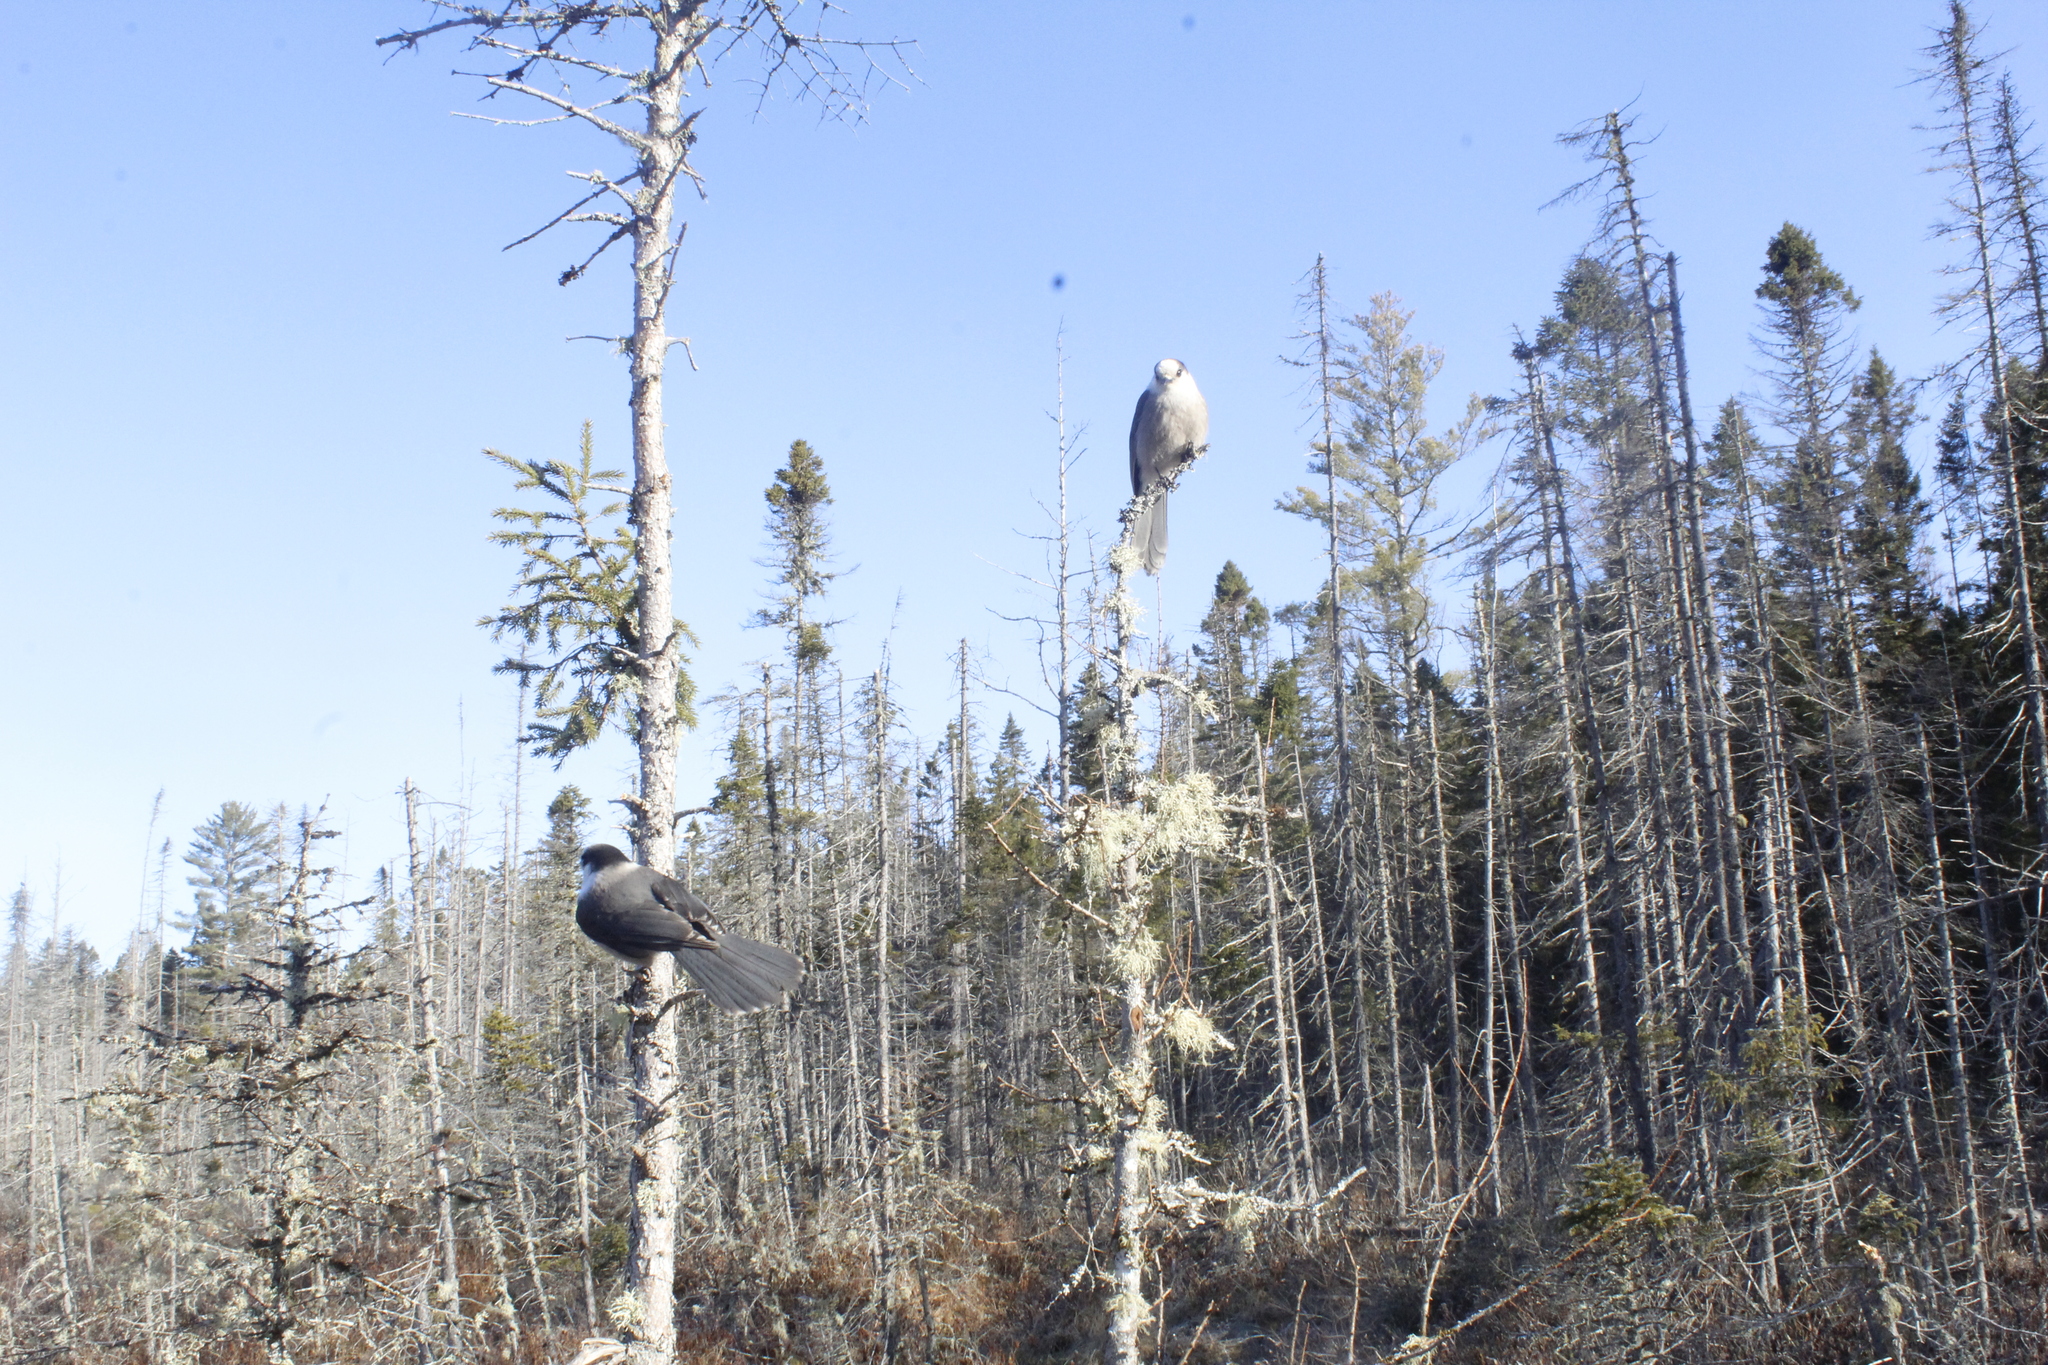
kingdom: Animalia
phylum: Chordata
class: Aves
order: Passeriformes
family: Corvidae
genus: Perisoreus
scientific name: Perisoreus canadensis
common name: Gray jay
